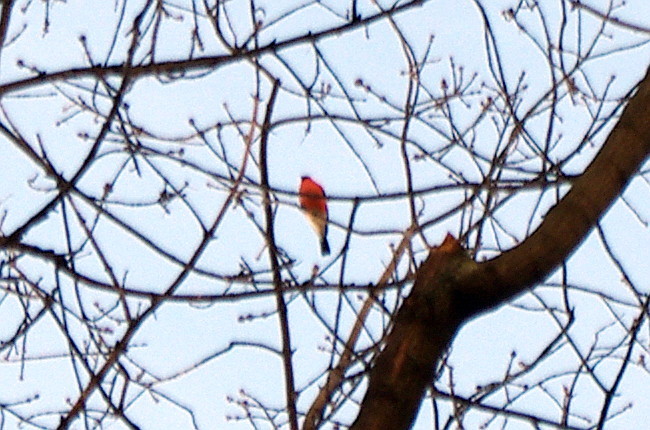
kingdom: Animalia
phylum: Chordata
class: Aves
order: Passeriformes
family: Fringillidae
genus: Pyrrhula
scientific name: Pyrrhula pyrrhula
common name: Eurasian bullfinch
